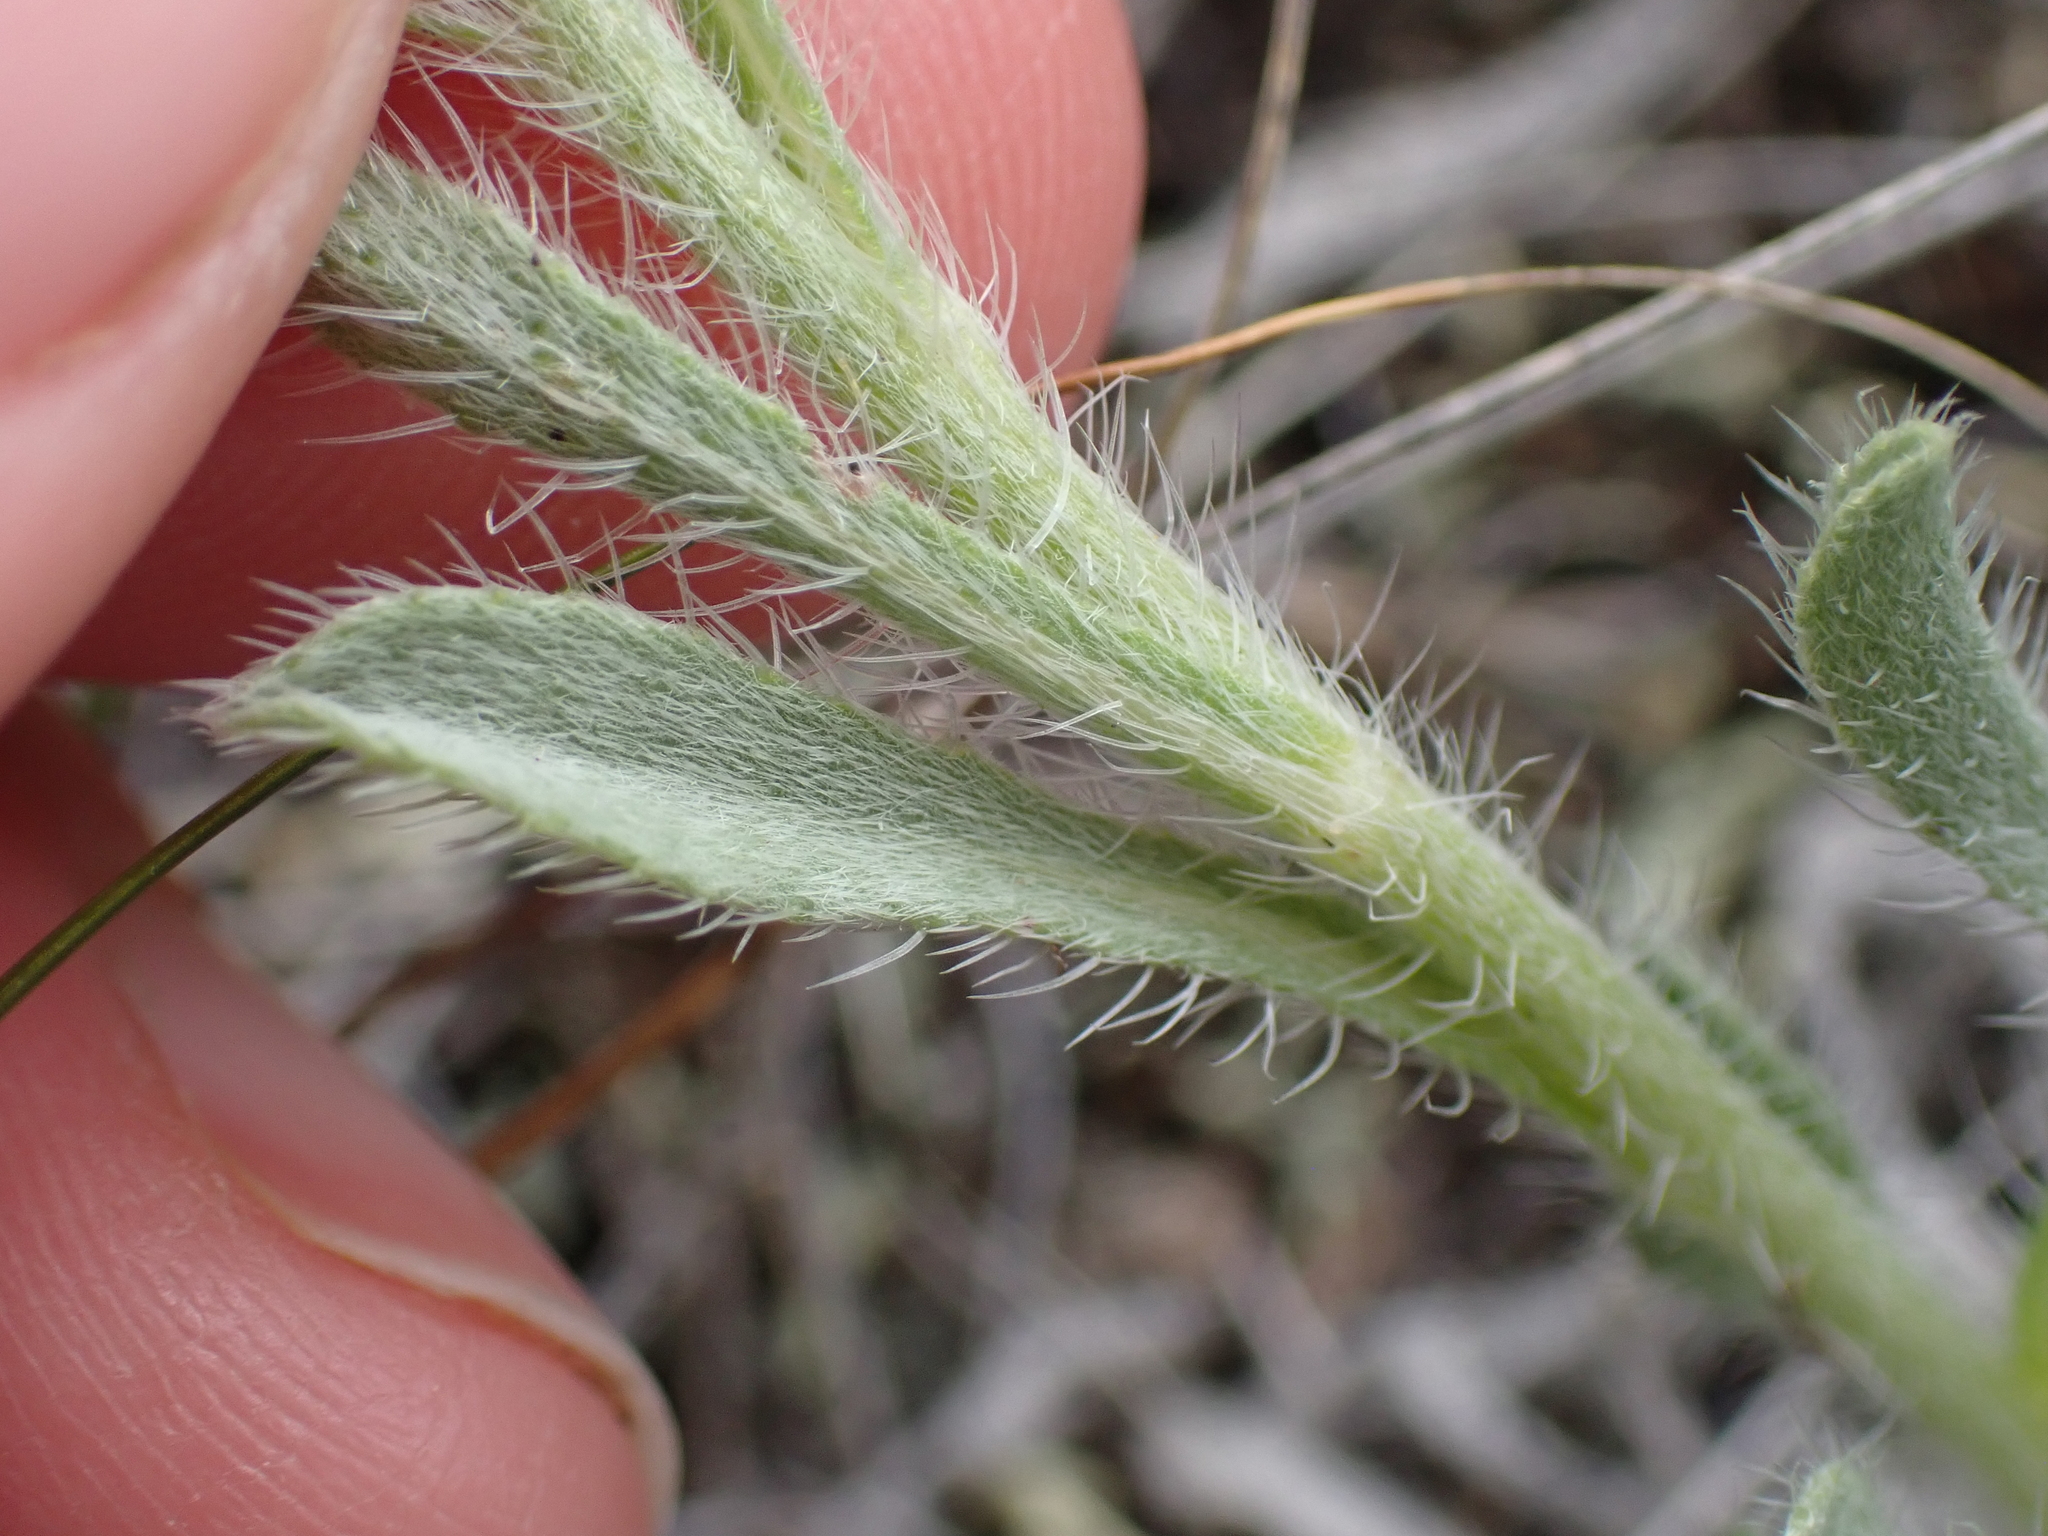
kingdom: Plantae
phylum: Tracheophyta
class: Magnoliopsida
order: Boraginales
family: Boraginaceae
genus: Oreocarya
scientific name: Oreocarya glomerata
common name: Macoun's cryptantha
